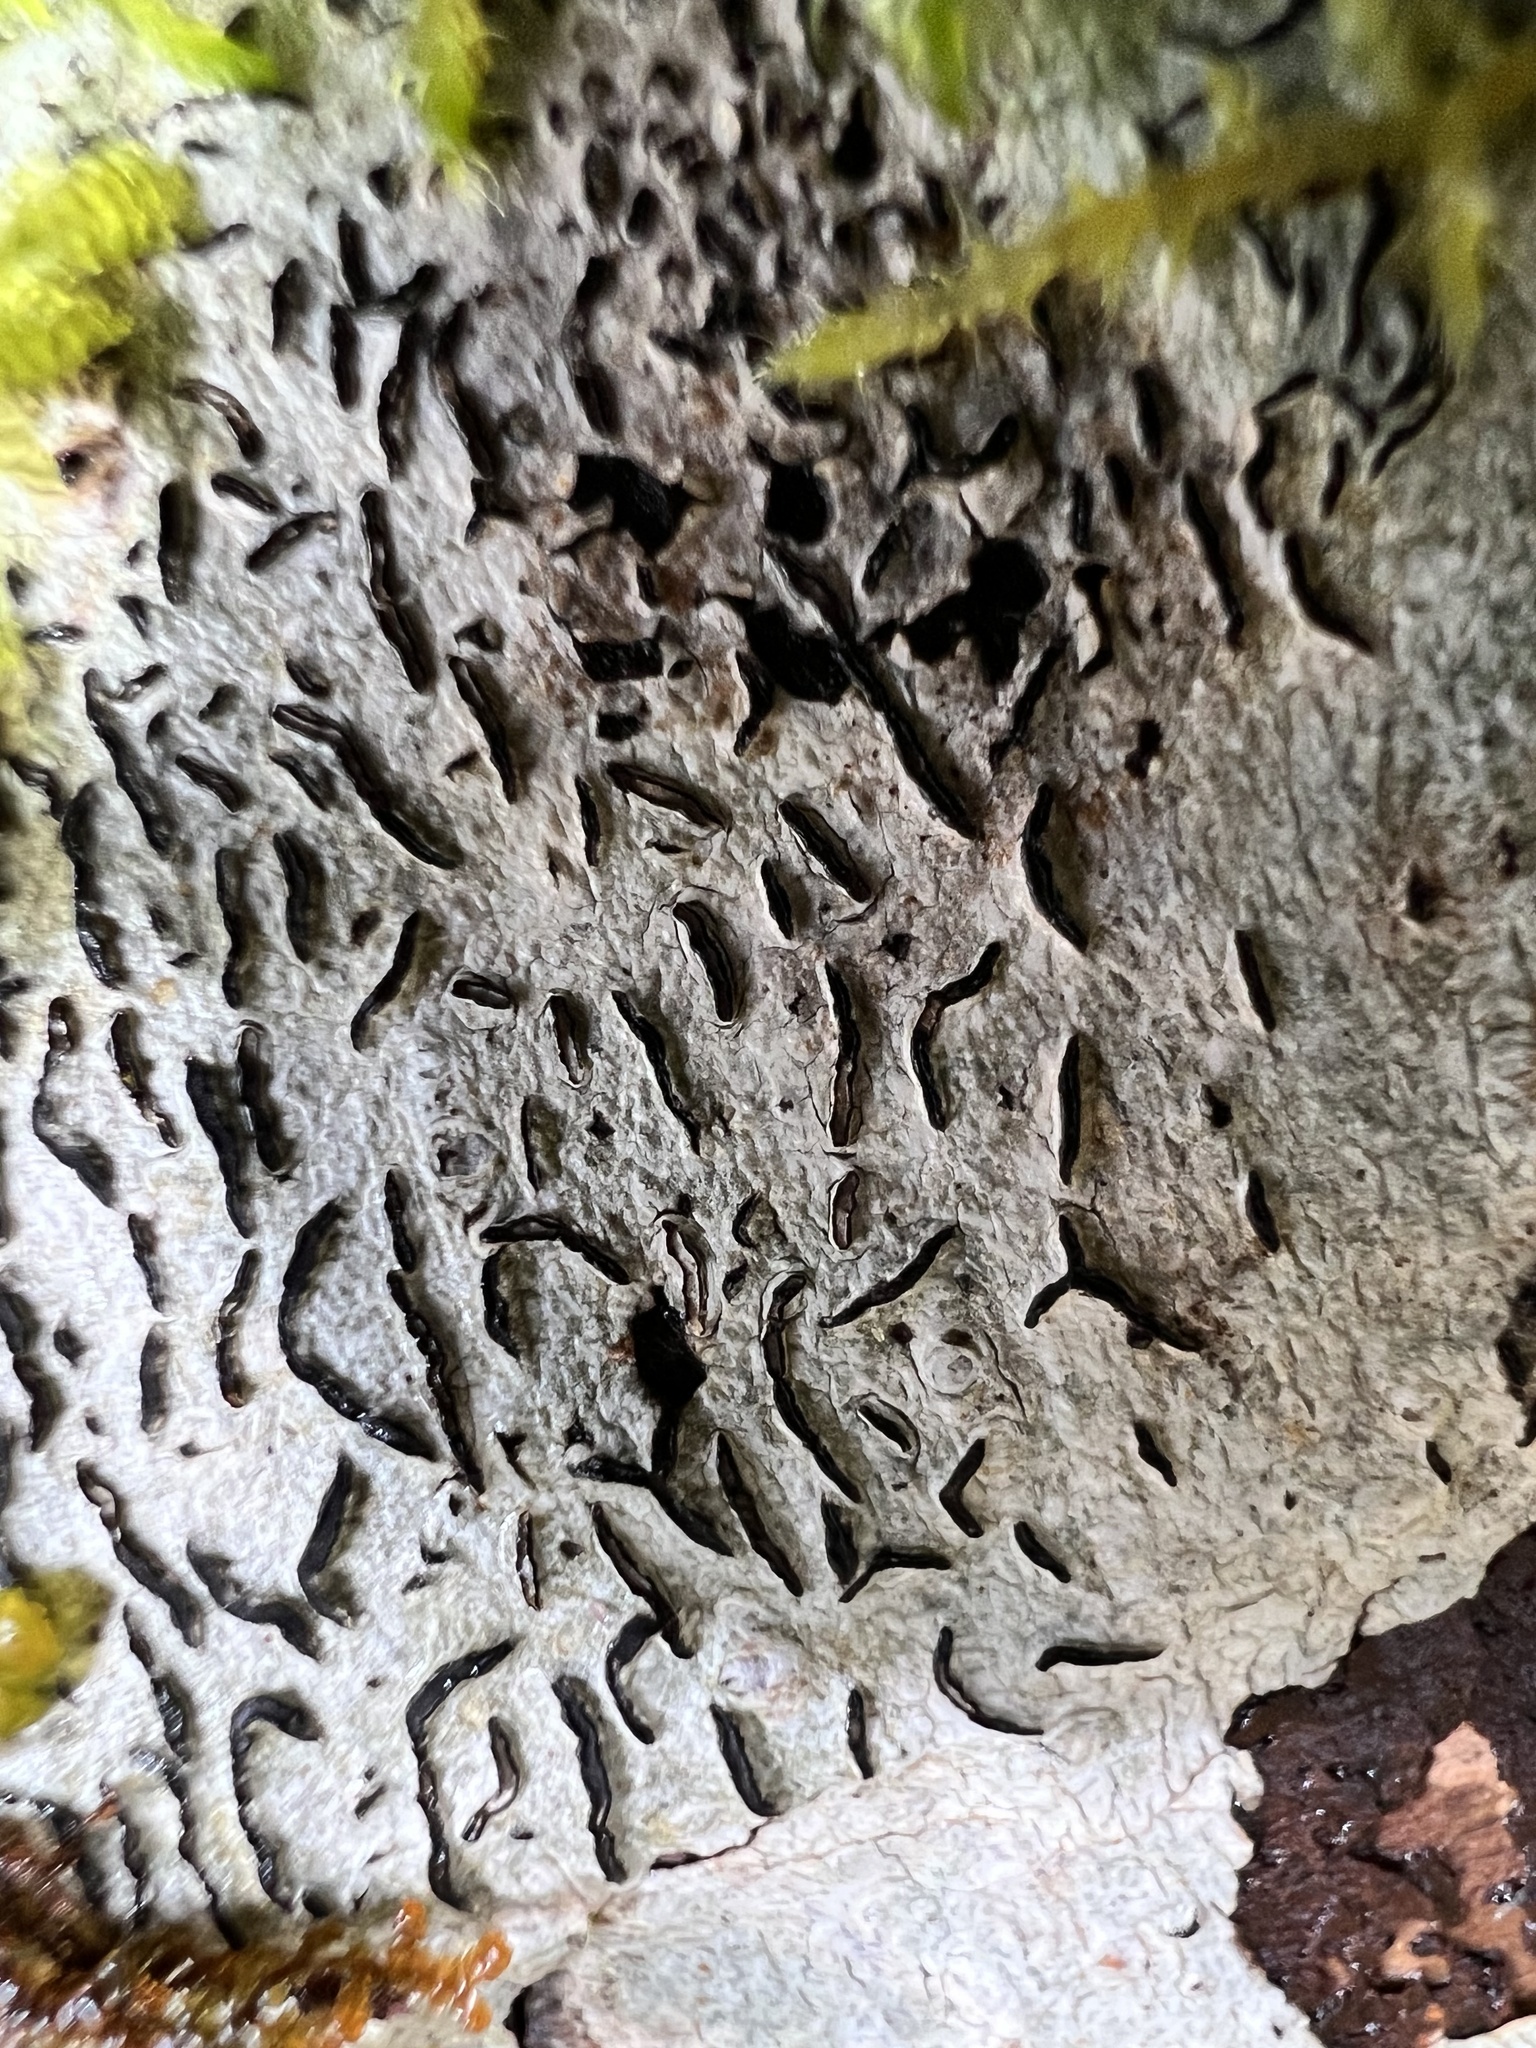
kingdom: Fungi
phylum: Ascomycota
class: Lecanoromycetes
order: Ostropales
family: Graphidaceae
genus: Graphis
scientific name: Graphis scripta
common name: Script lichen
